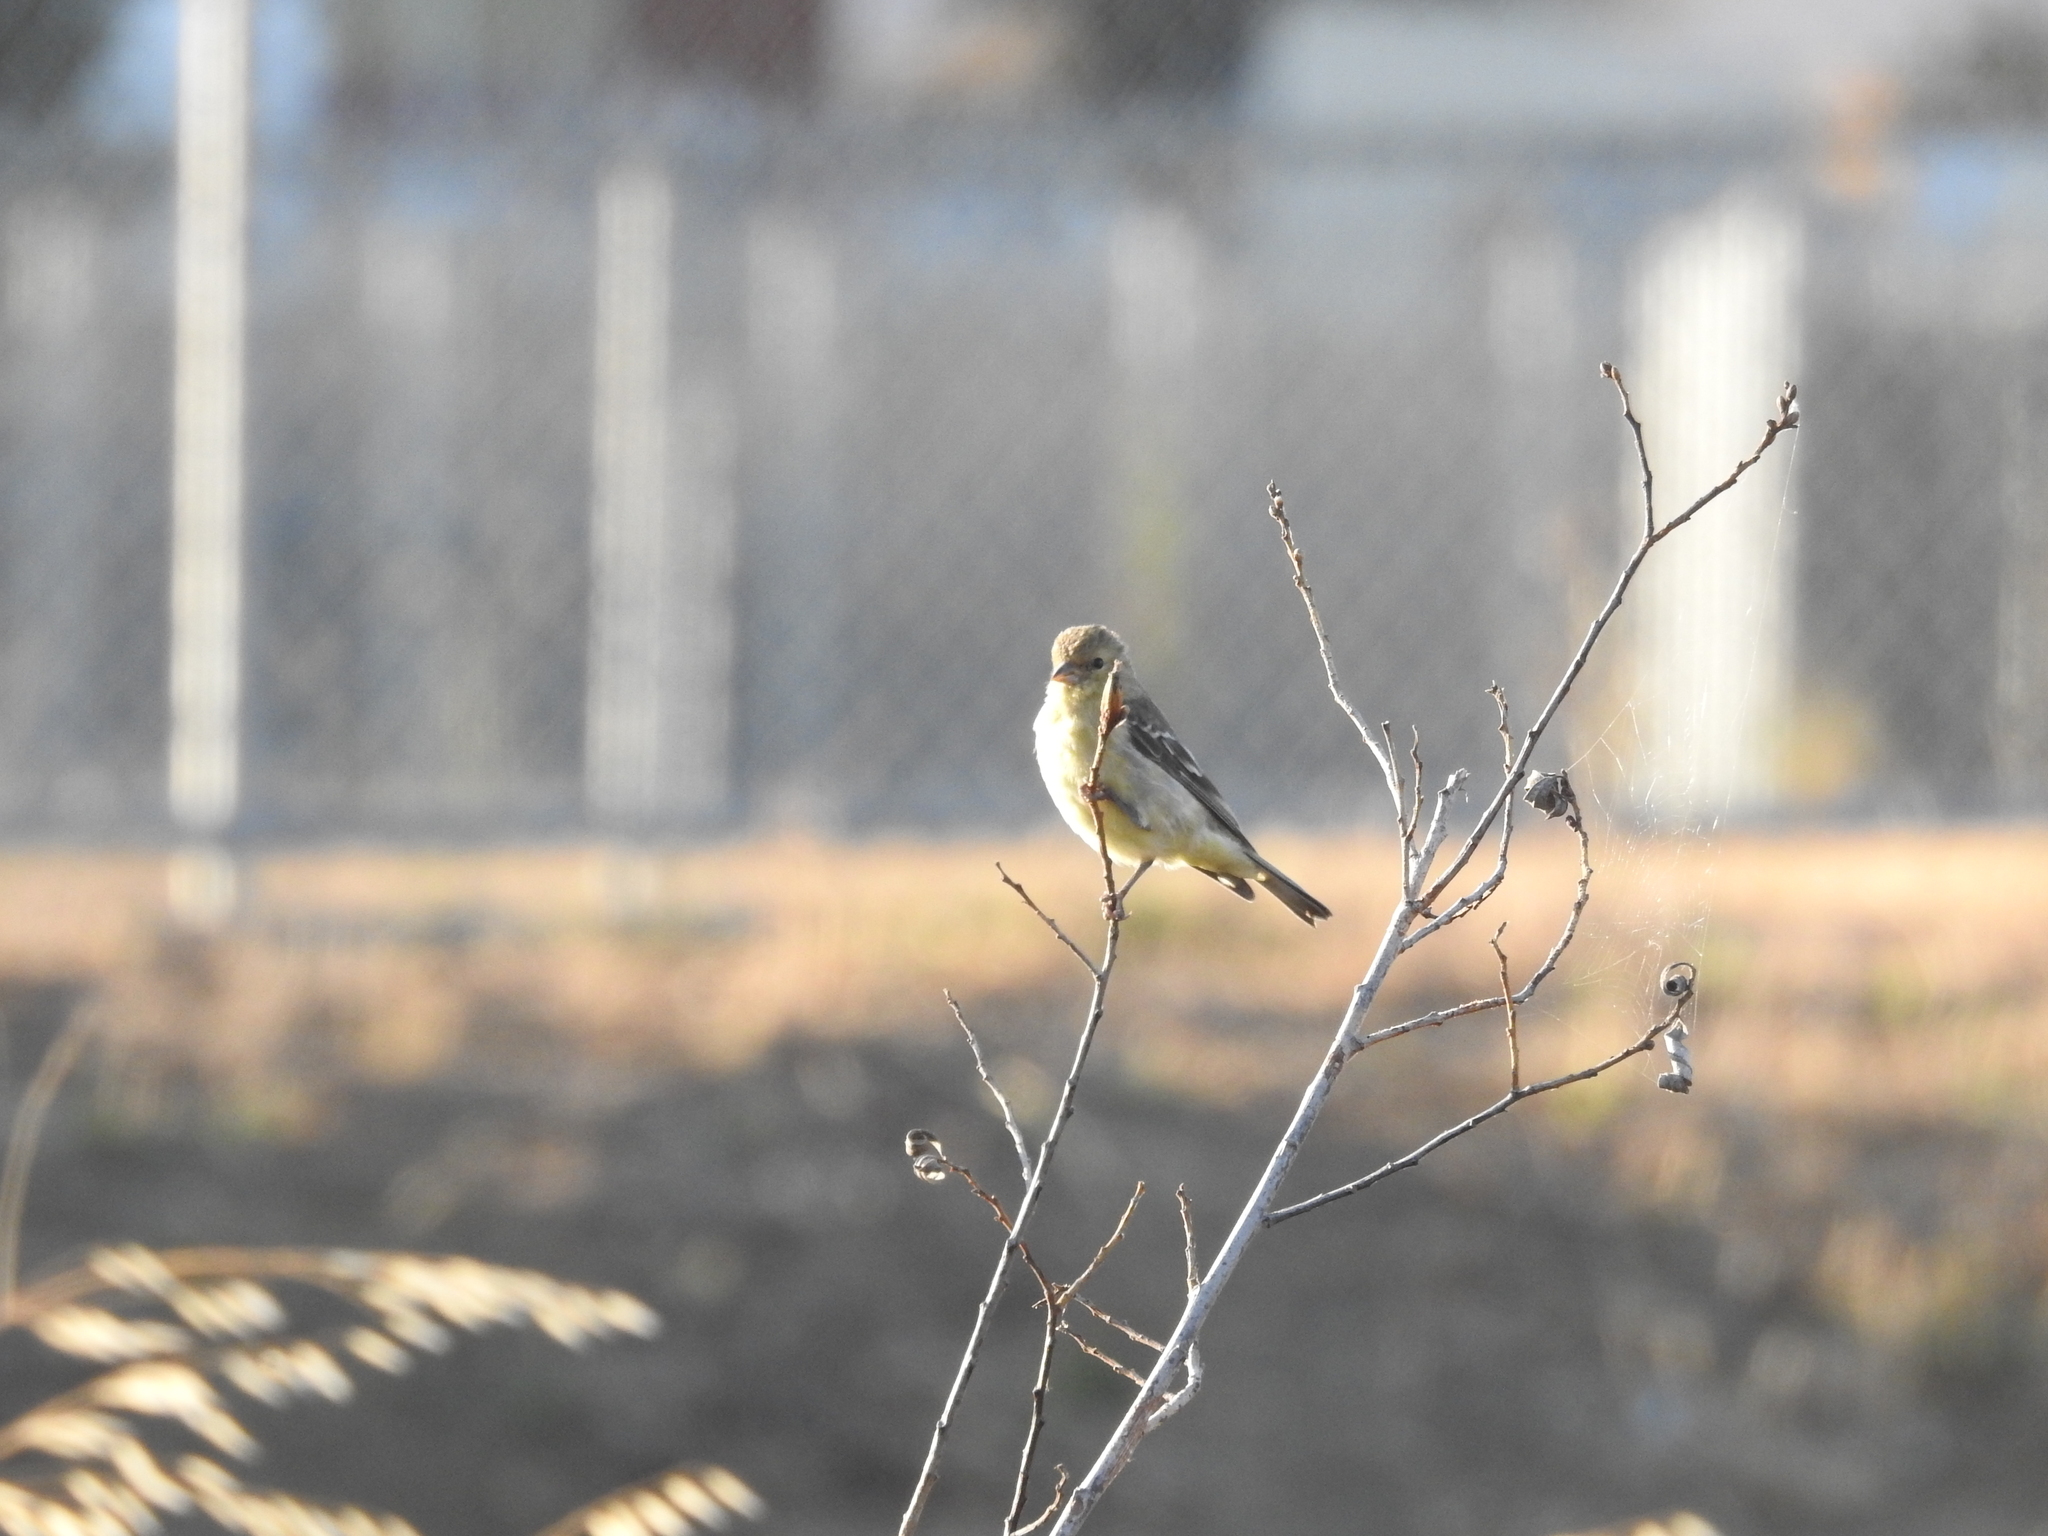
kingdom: Animalia
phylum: Chordata
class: Aves
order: Passeriformes
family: Fringillidae
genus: Spinus
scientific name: Spinus psaltria
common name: Lesser goldfinch
